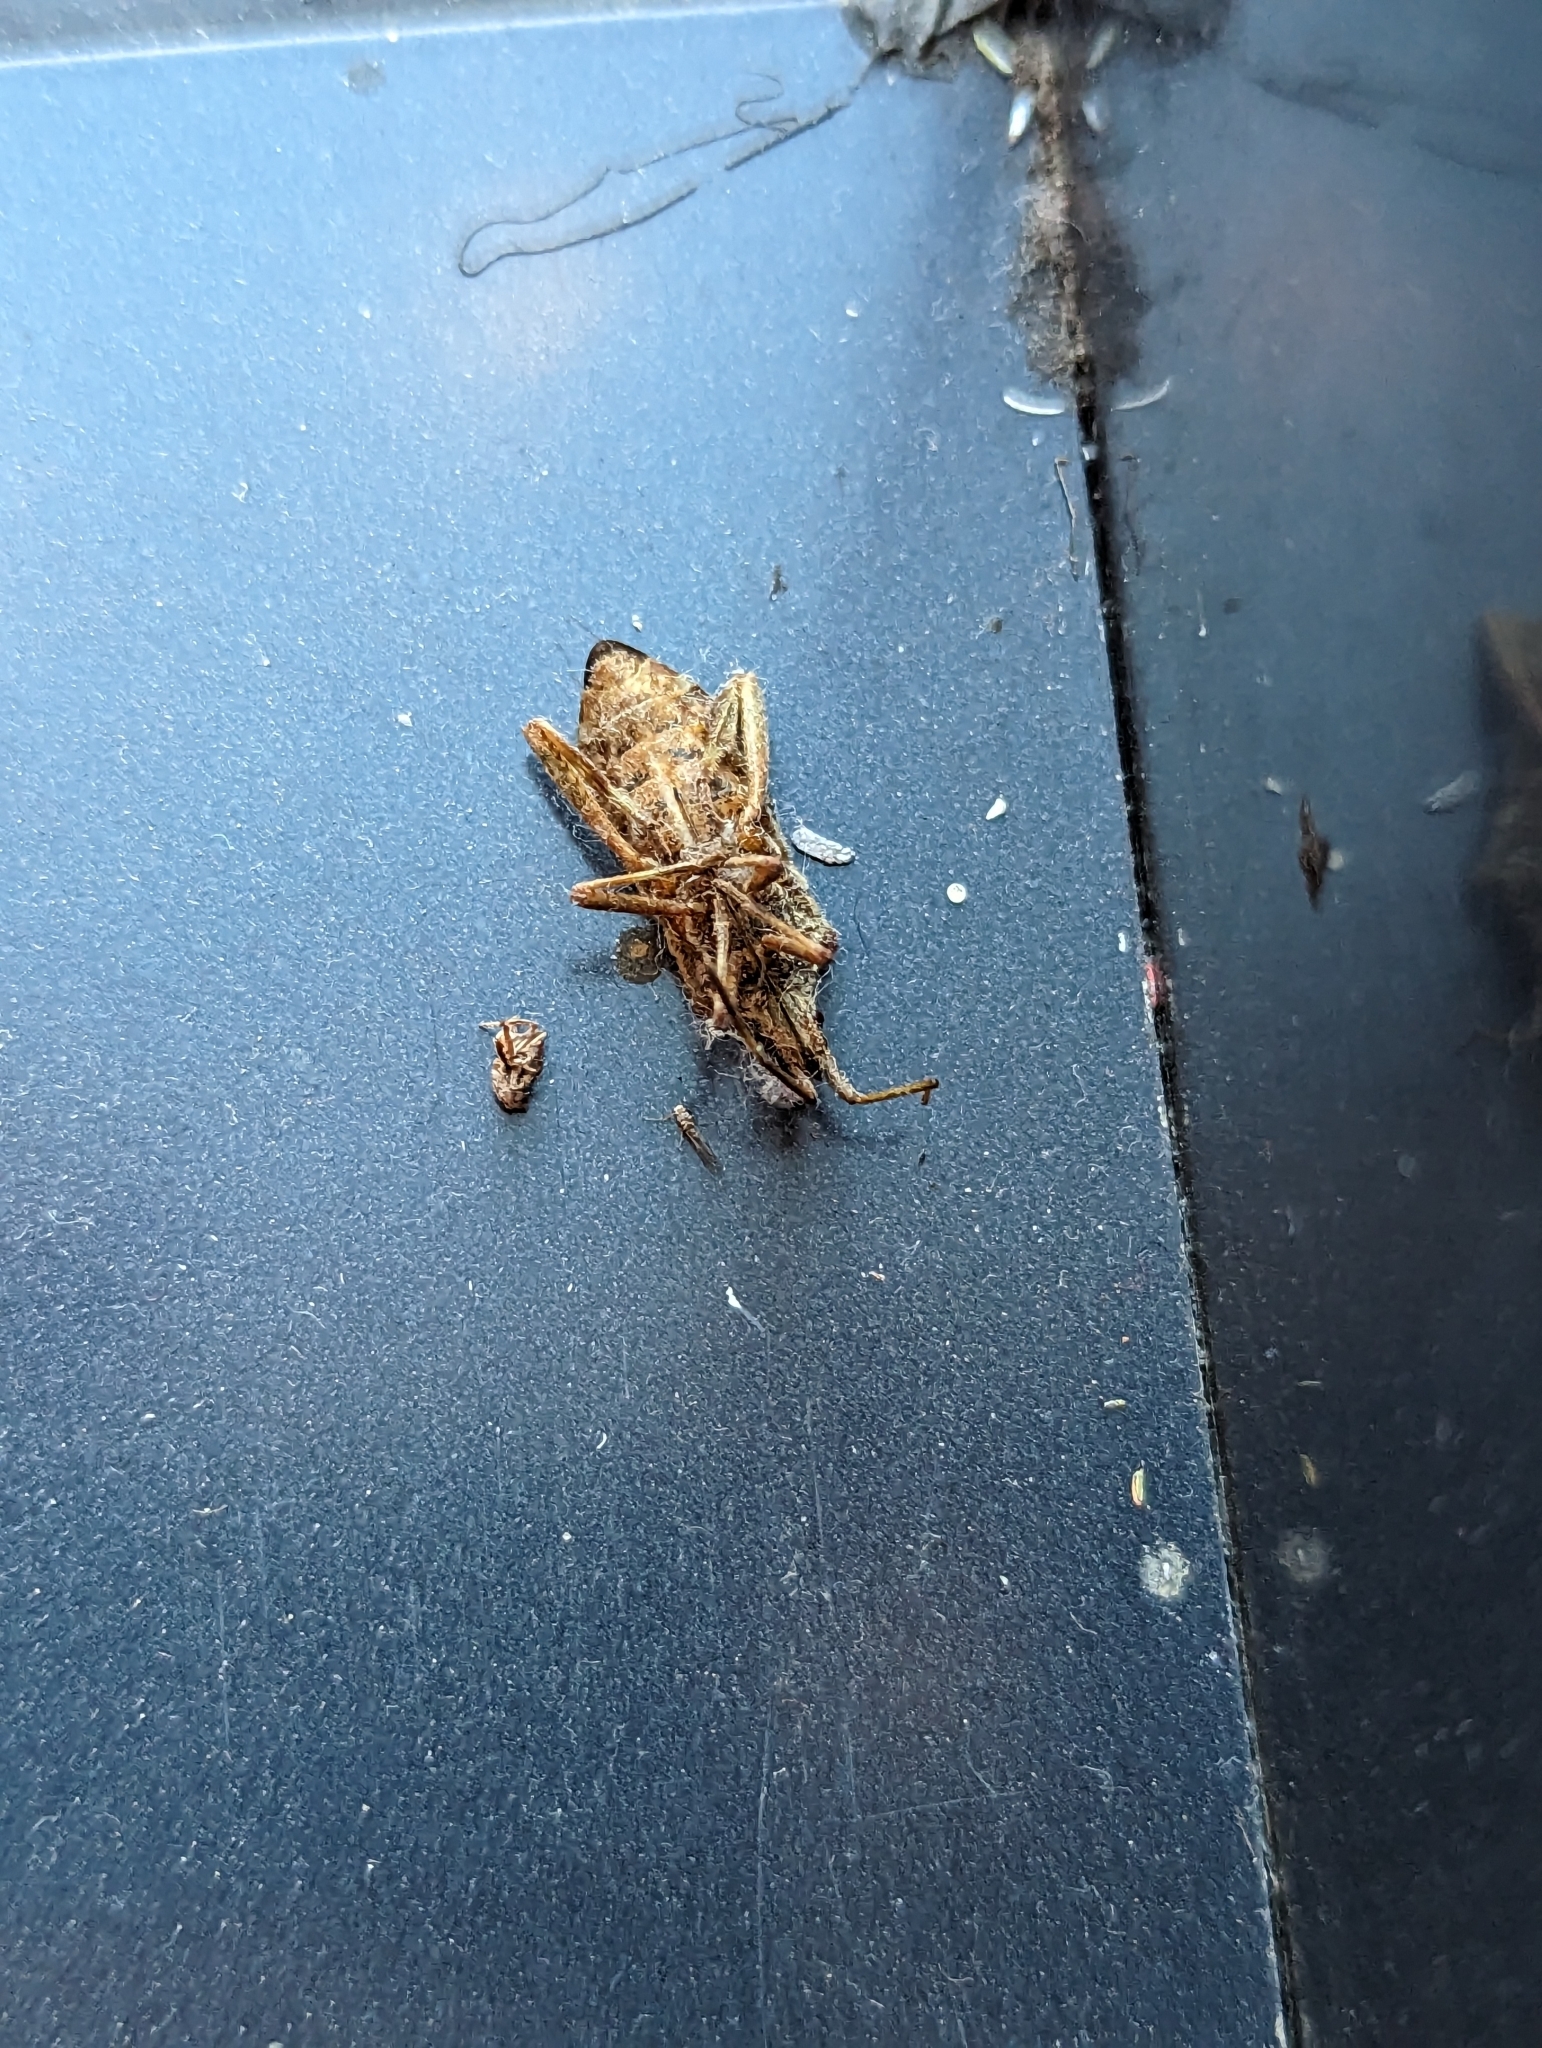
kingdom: Animalia
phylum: Arthropoda
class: Insecta
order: Hemiptera
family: Coreidae
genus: Leptoglossus
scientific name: Leptoglossus occidentalis
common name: Western conifer-seed bug
